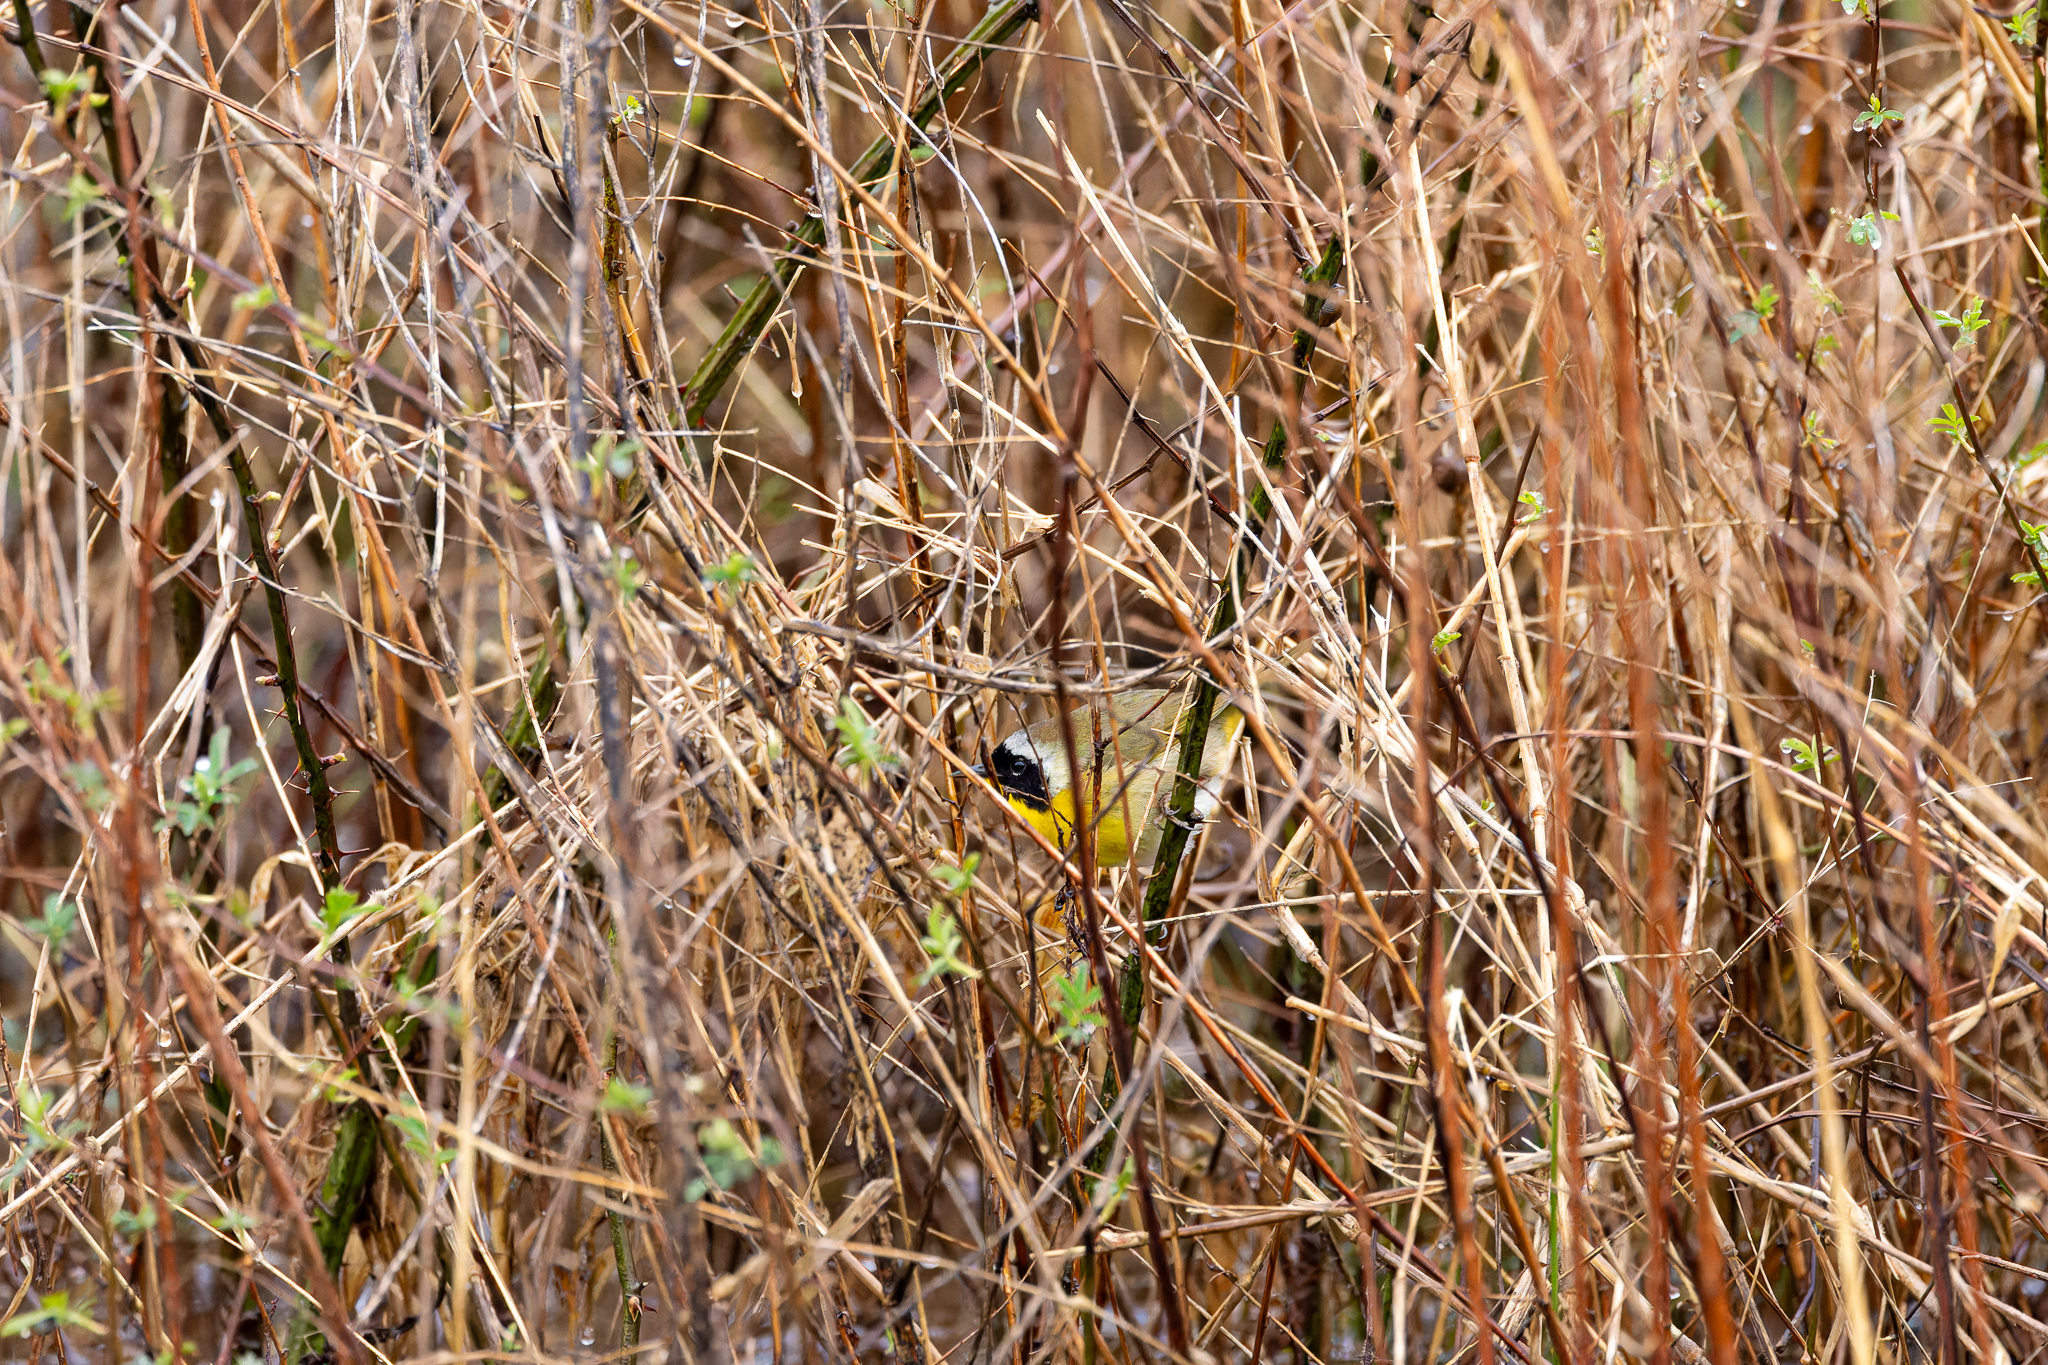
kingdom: Animalia
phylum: Chordata
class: Aves
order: Passeriformes
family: Parulidae
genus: Geothlypis
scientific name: Geothlypis trichas
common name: Common yellowthroat
